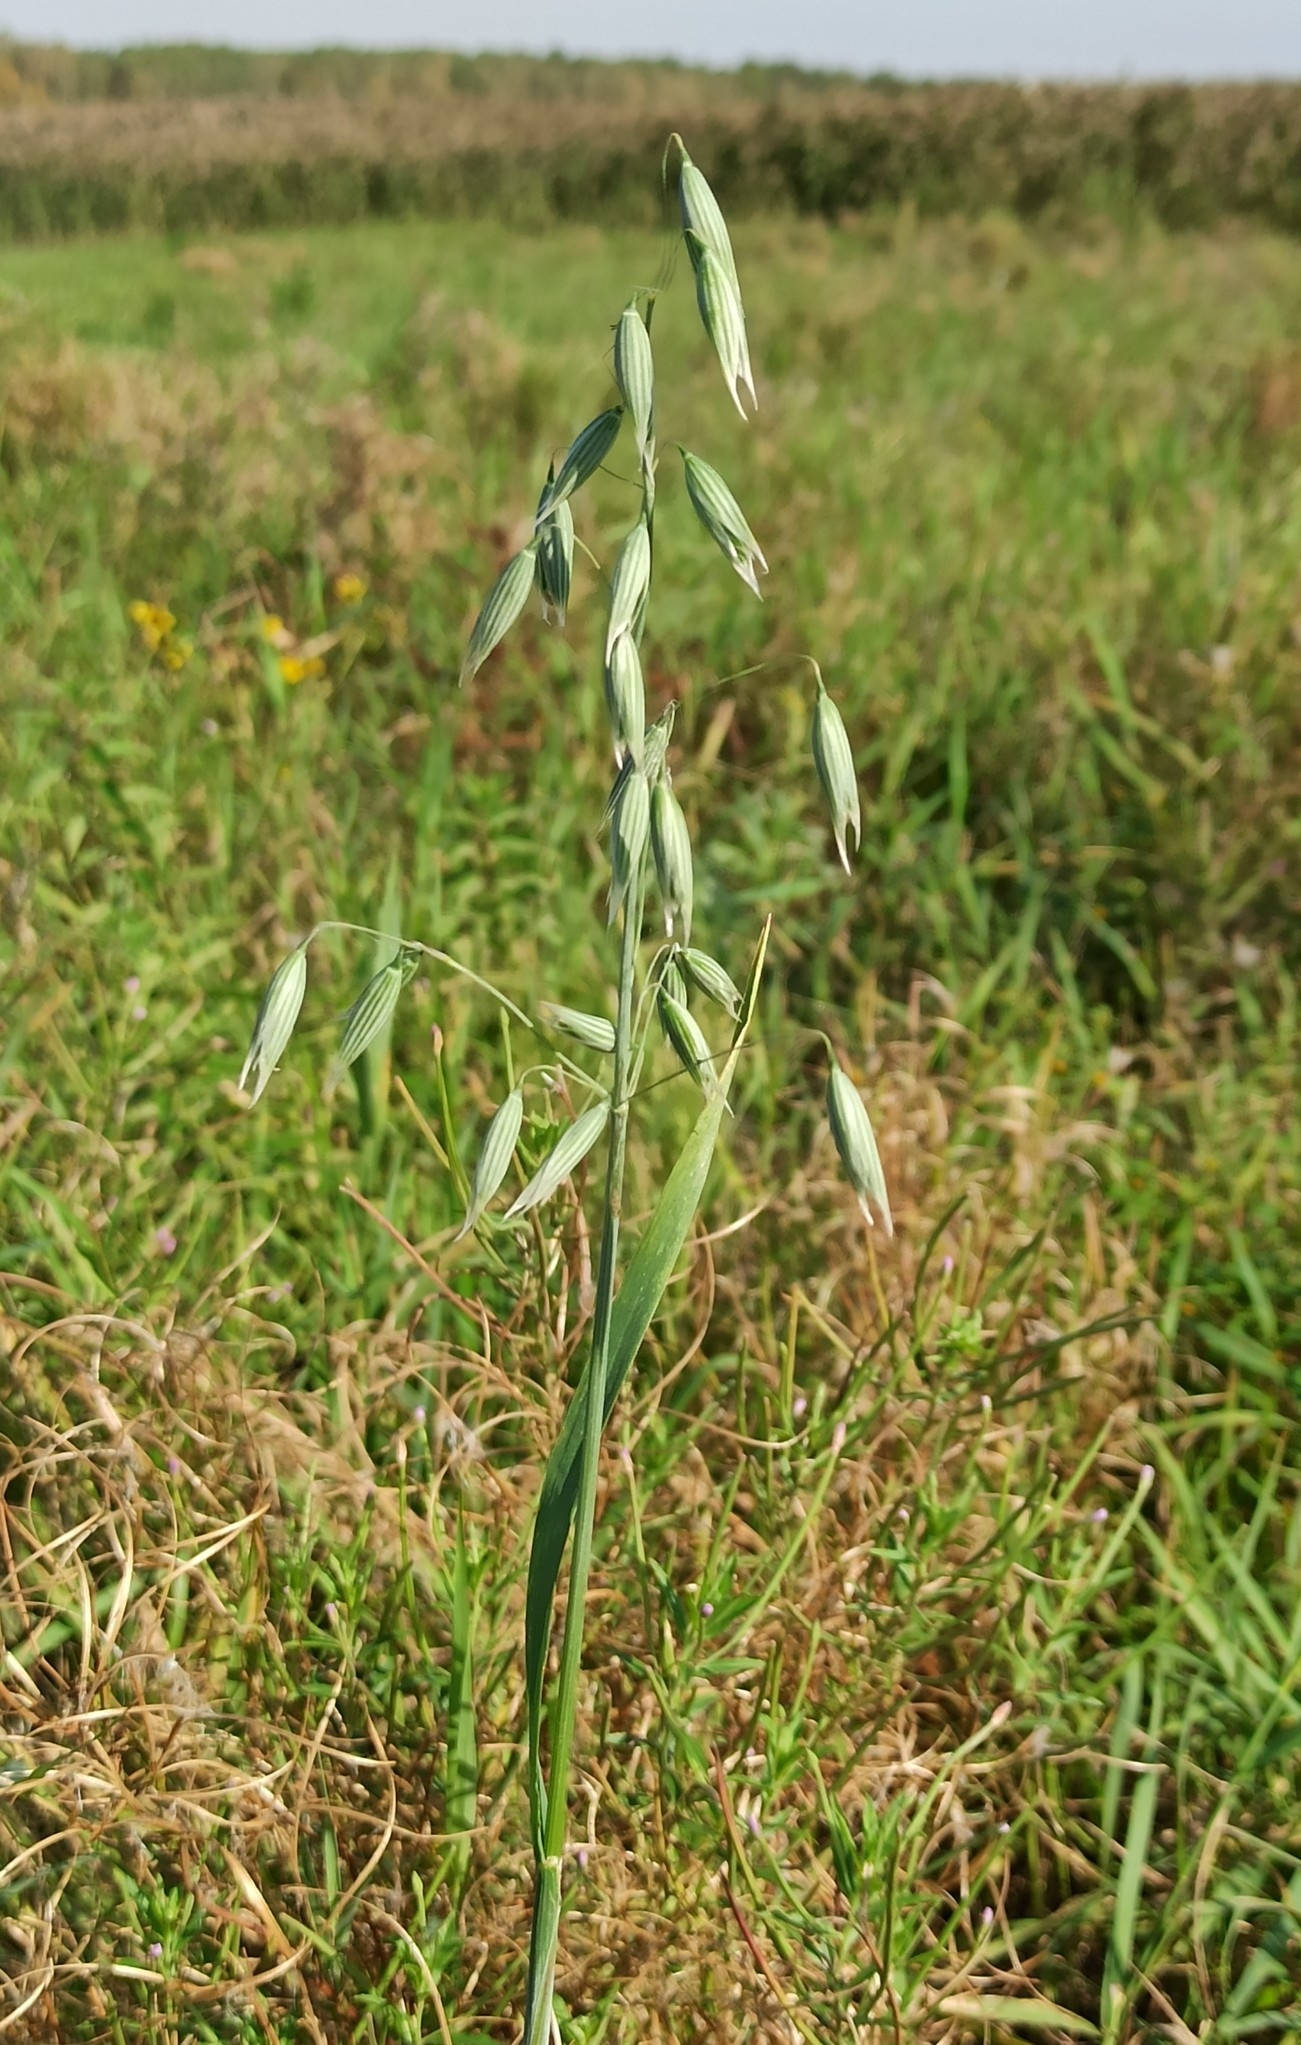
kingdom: Plantae
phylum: Tracheophyta
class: Liliopsida
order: Poales
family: Poaceae
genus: Avena
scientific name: Avena sativa
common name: Oat
